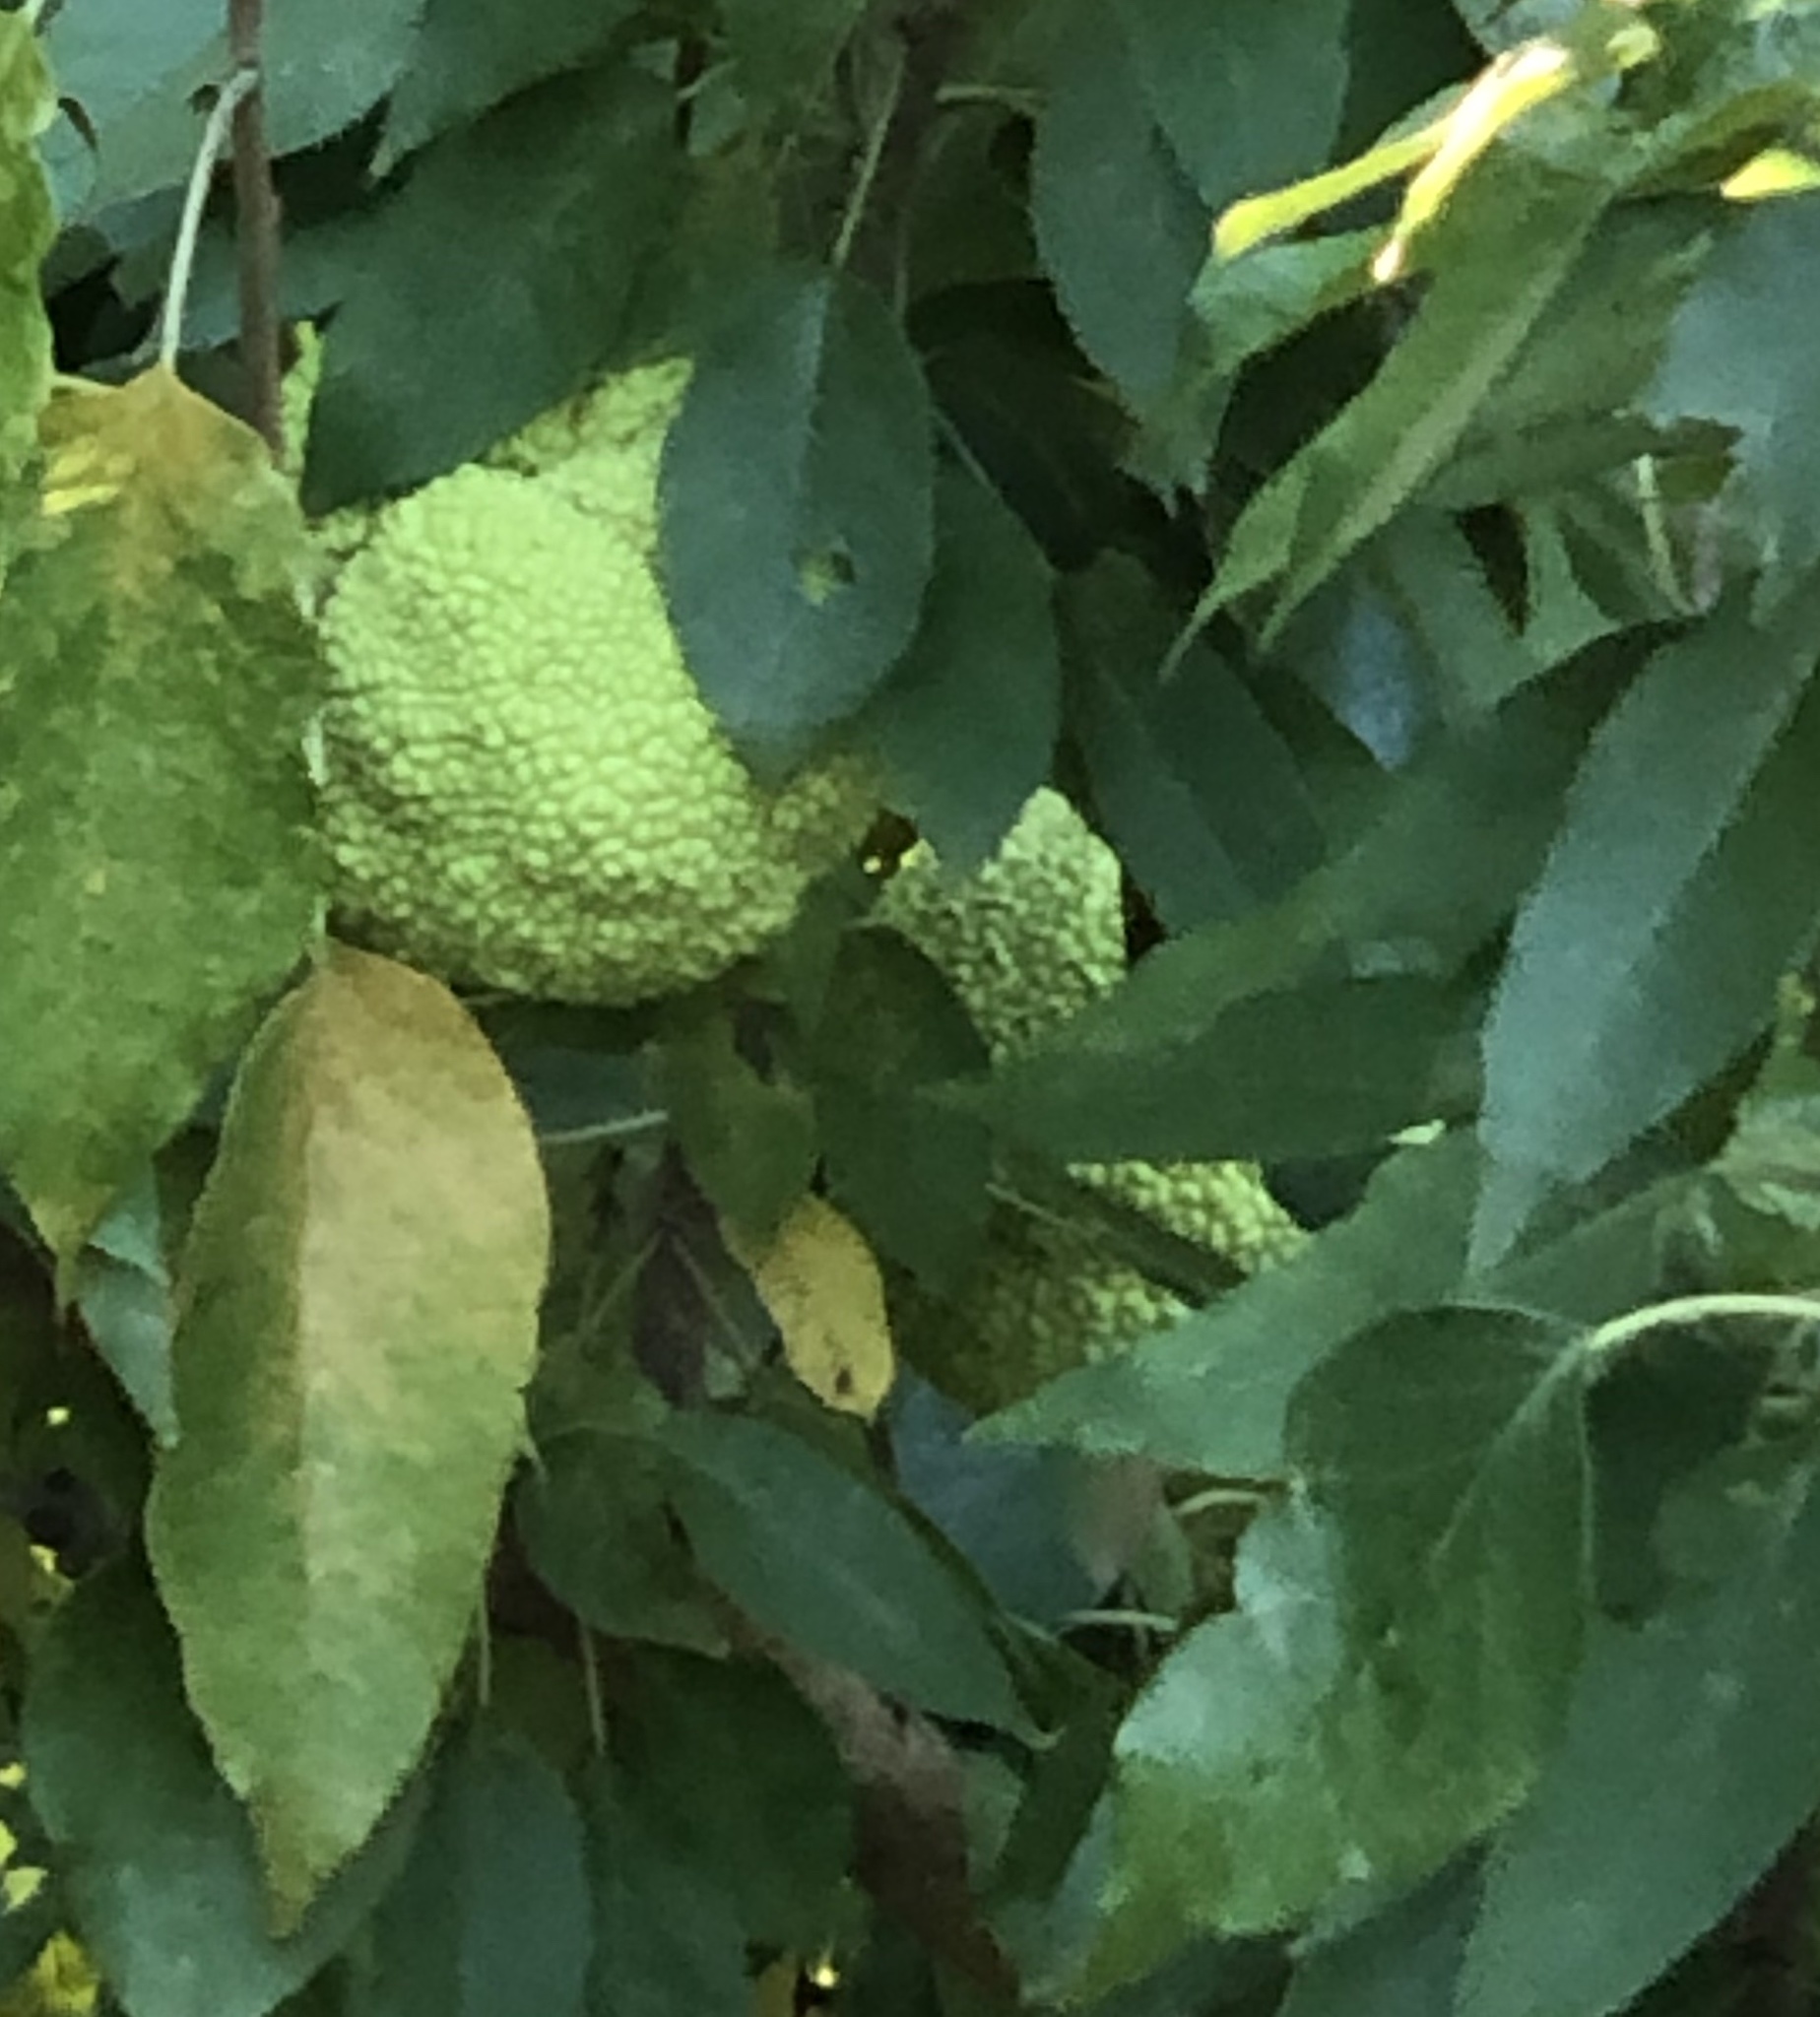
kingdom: Plantae
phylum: Tracheophyta
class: Magnoliopsida
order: Rosales
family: Moraceae
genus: Maclura
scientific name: Maclura pomifera
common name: Osage-orange
